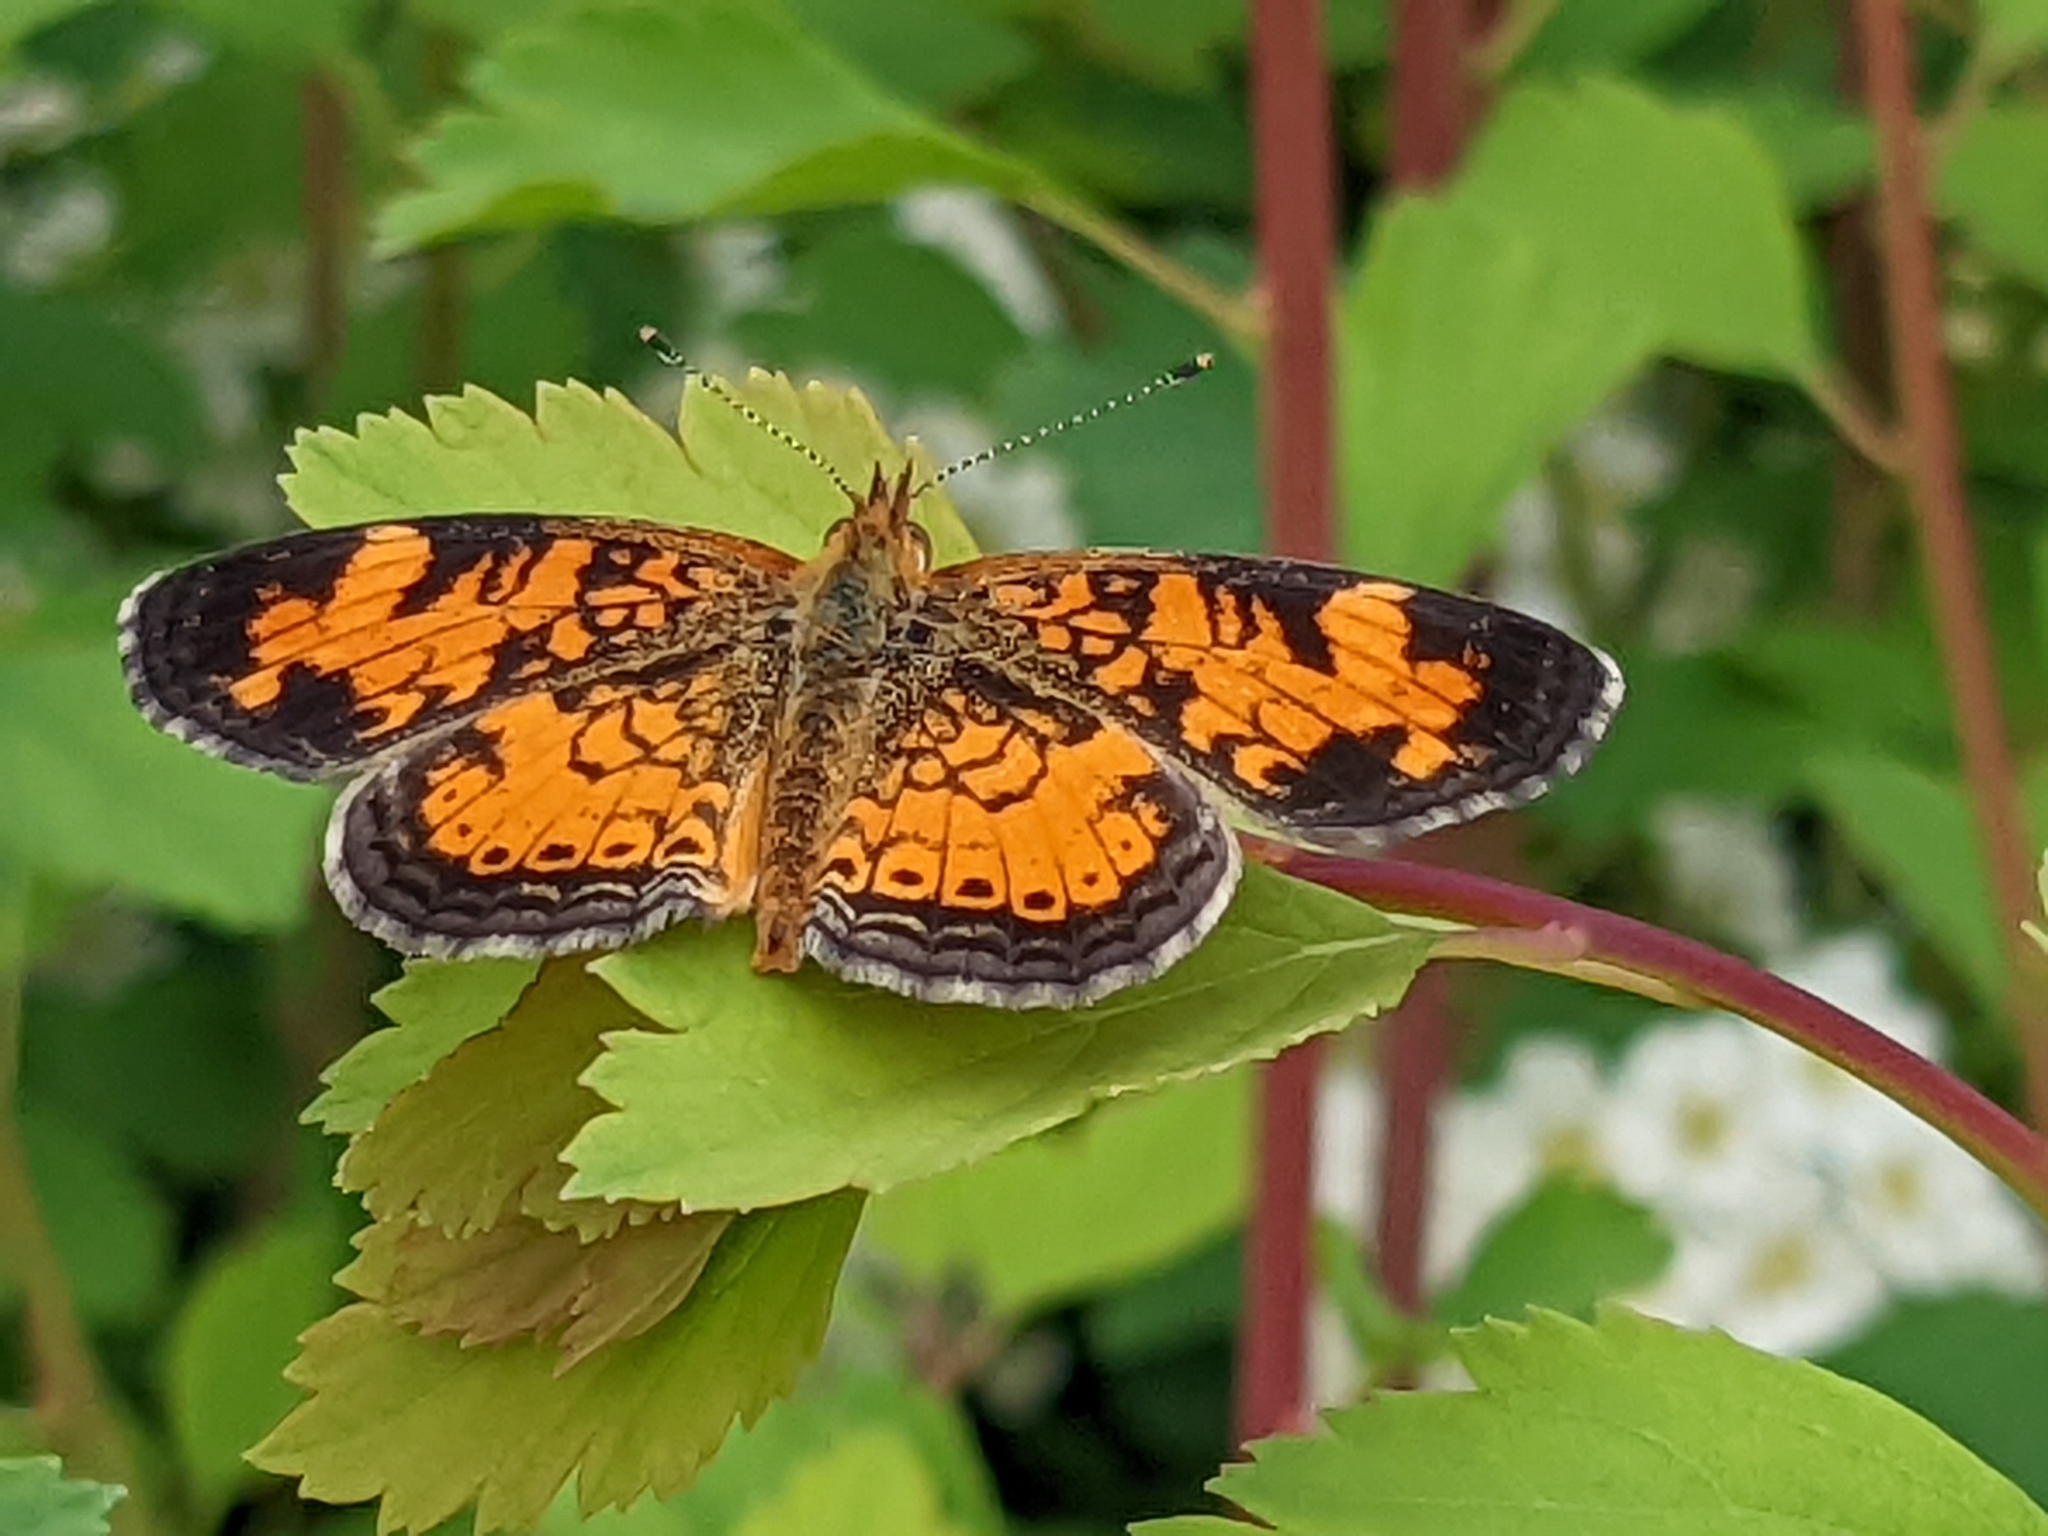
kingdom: Animalia
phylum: Arthropoda
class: Insecta
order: Lepidoptera
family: Nymphalidae
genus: Phyciodes
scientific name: Phyciodes tharos
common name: Pearl crescent
